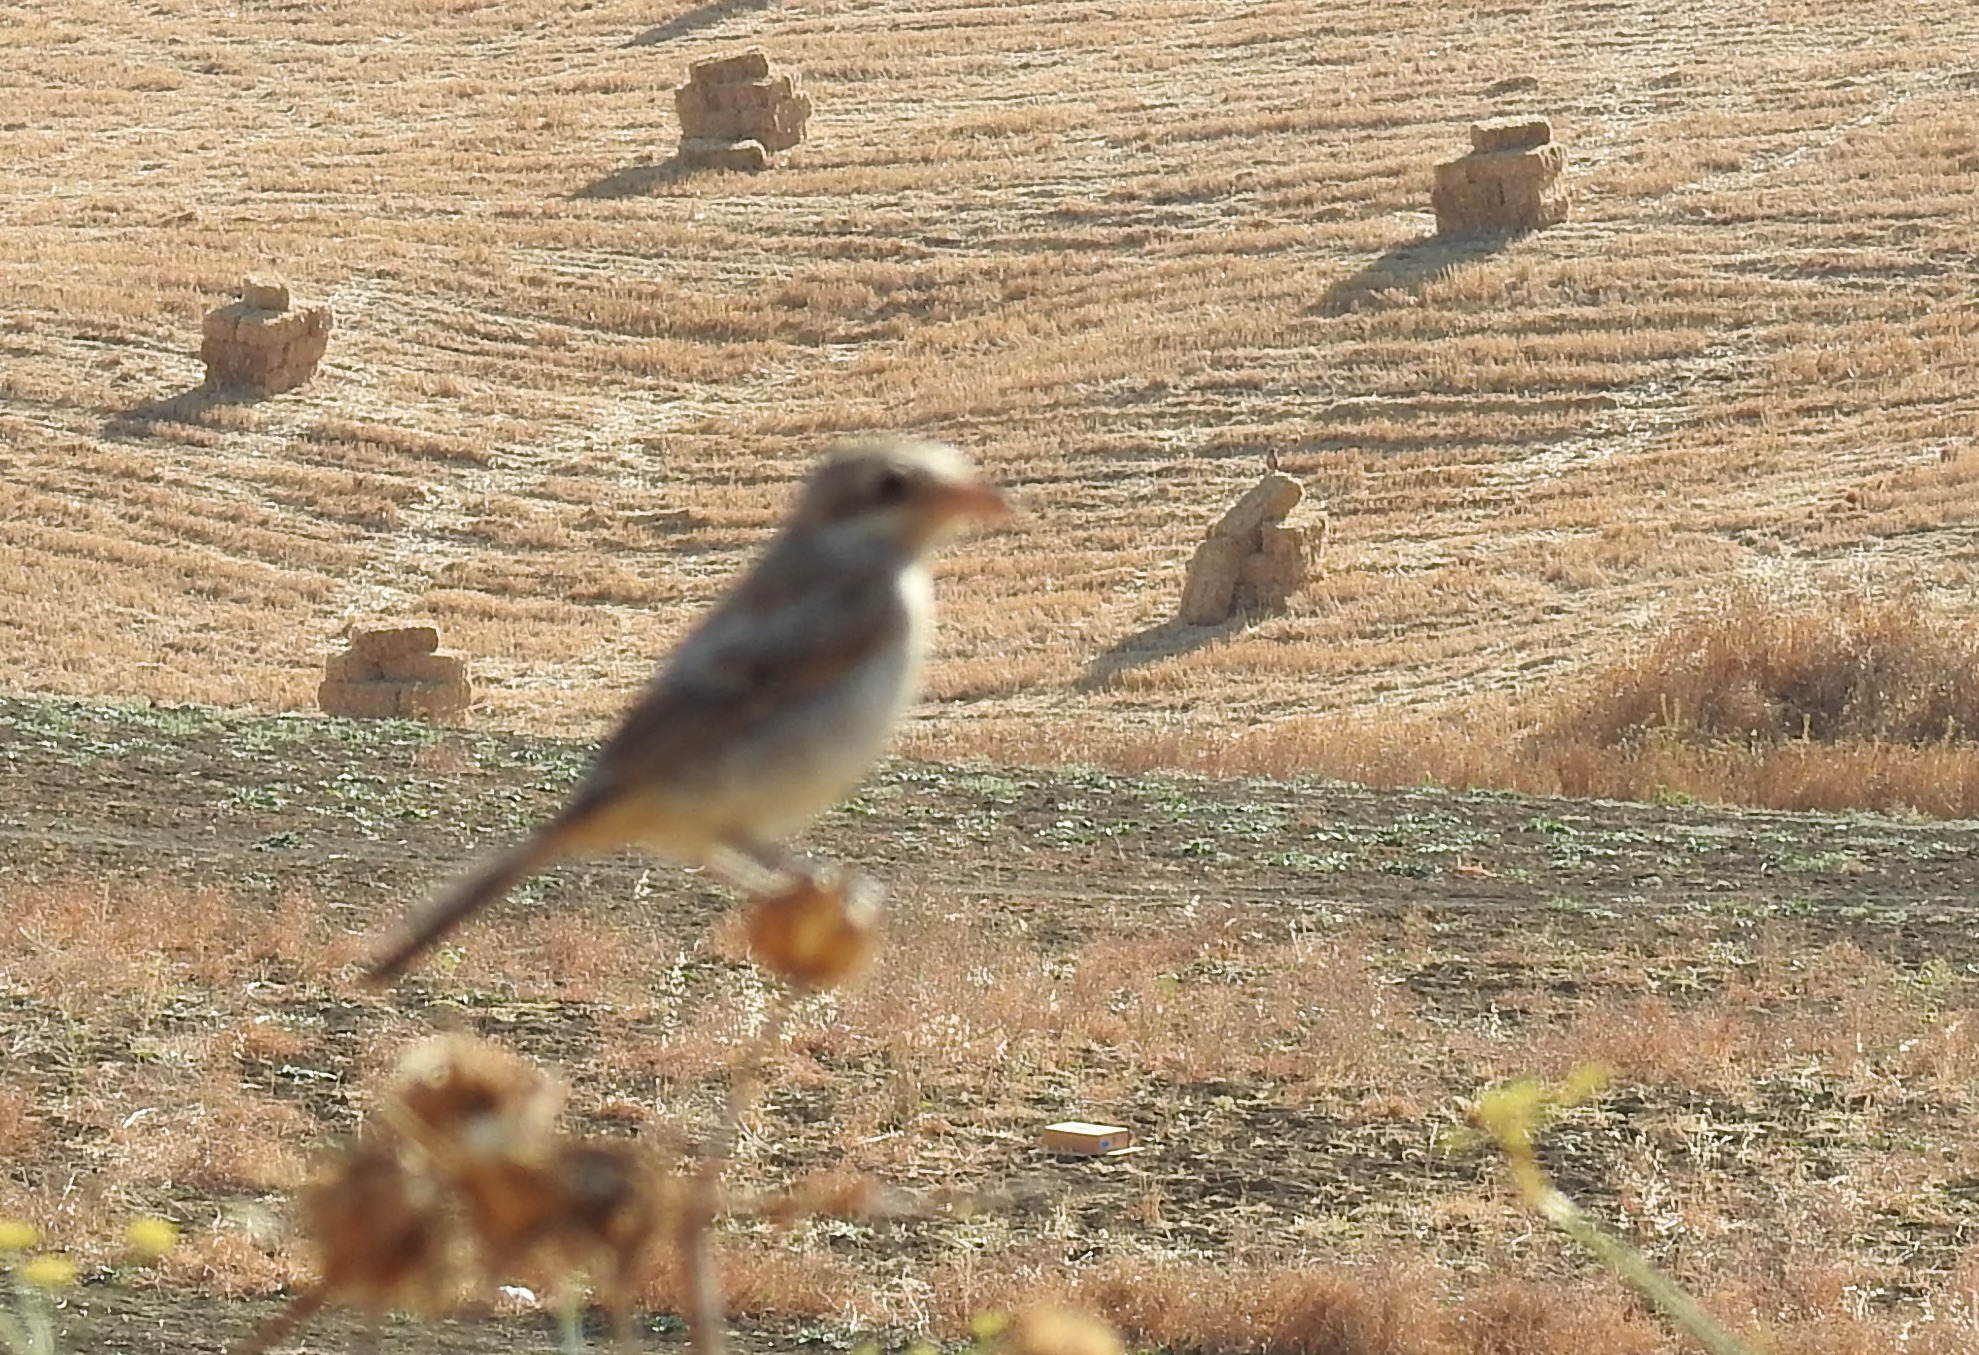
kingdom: Animalia
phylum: Chordata
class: Aves
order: Passeriformes
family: Laniidae
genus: Lanius
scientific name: Lanius senator
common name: Woodchat shrike
